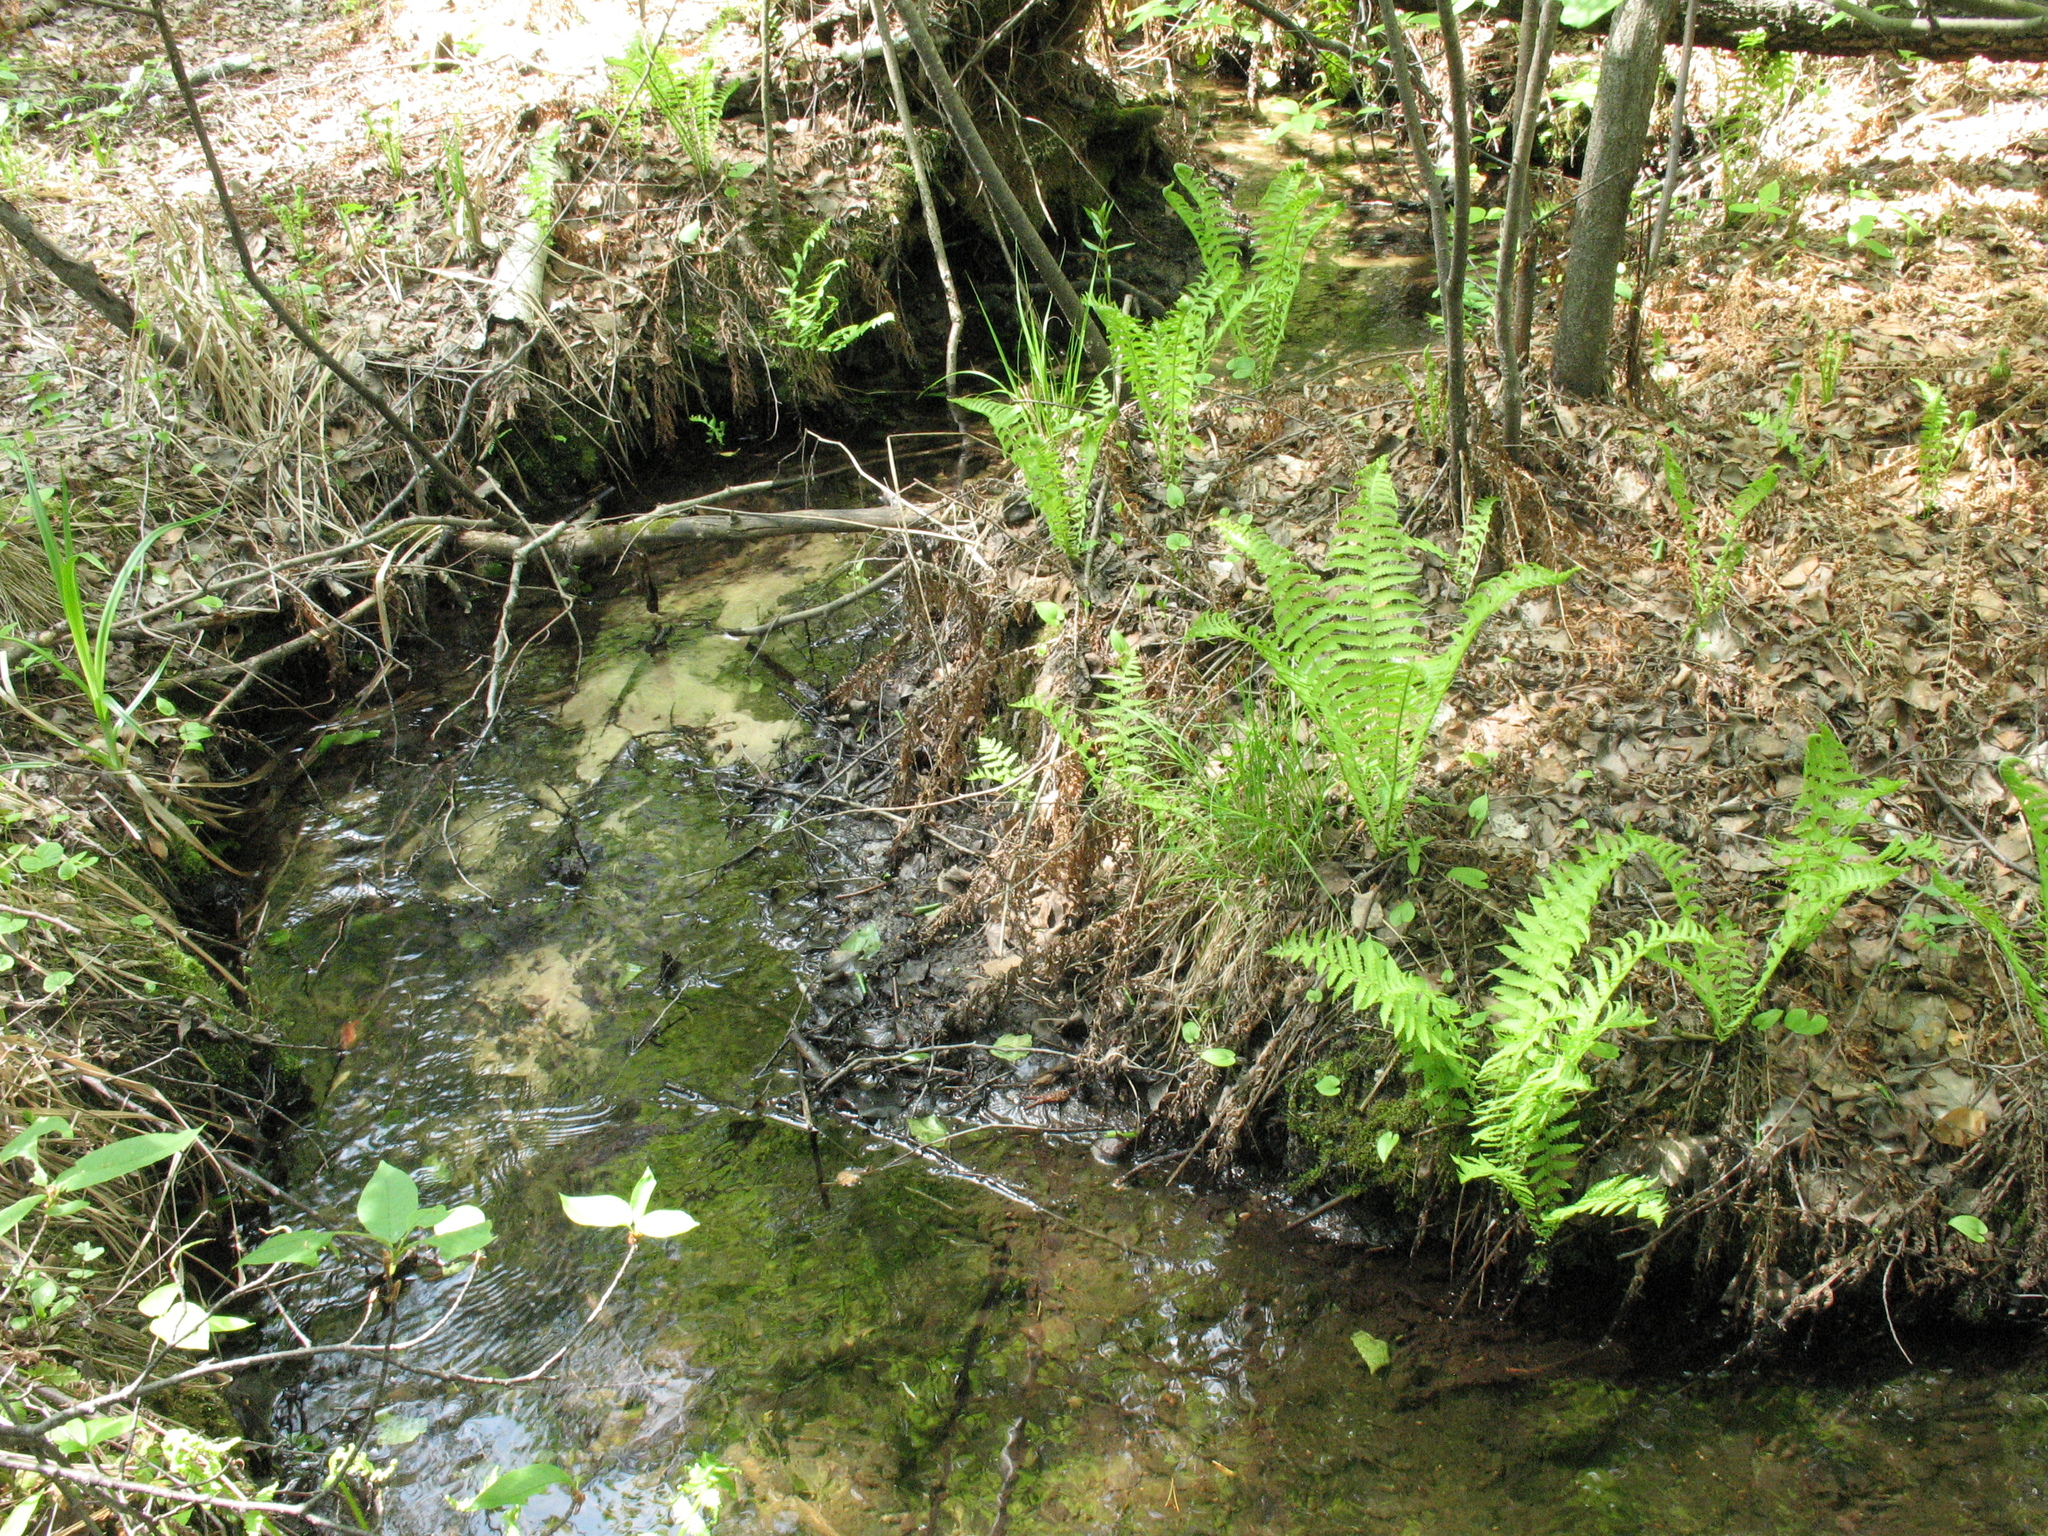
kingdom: Plantae
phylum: Tracheophyta
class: Polypodiopsida
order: Polypodiales
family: Onocleaceae
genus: Matteuccia
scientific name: Matteuccia struthiopteris
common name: Ostrich fern
